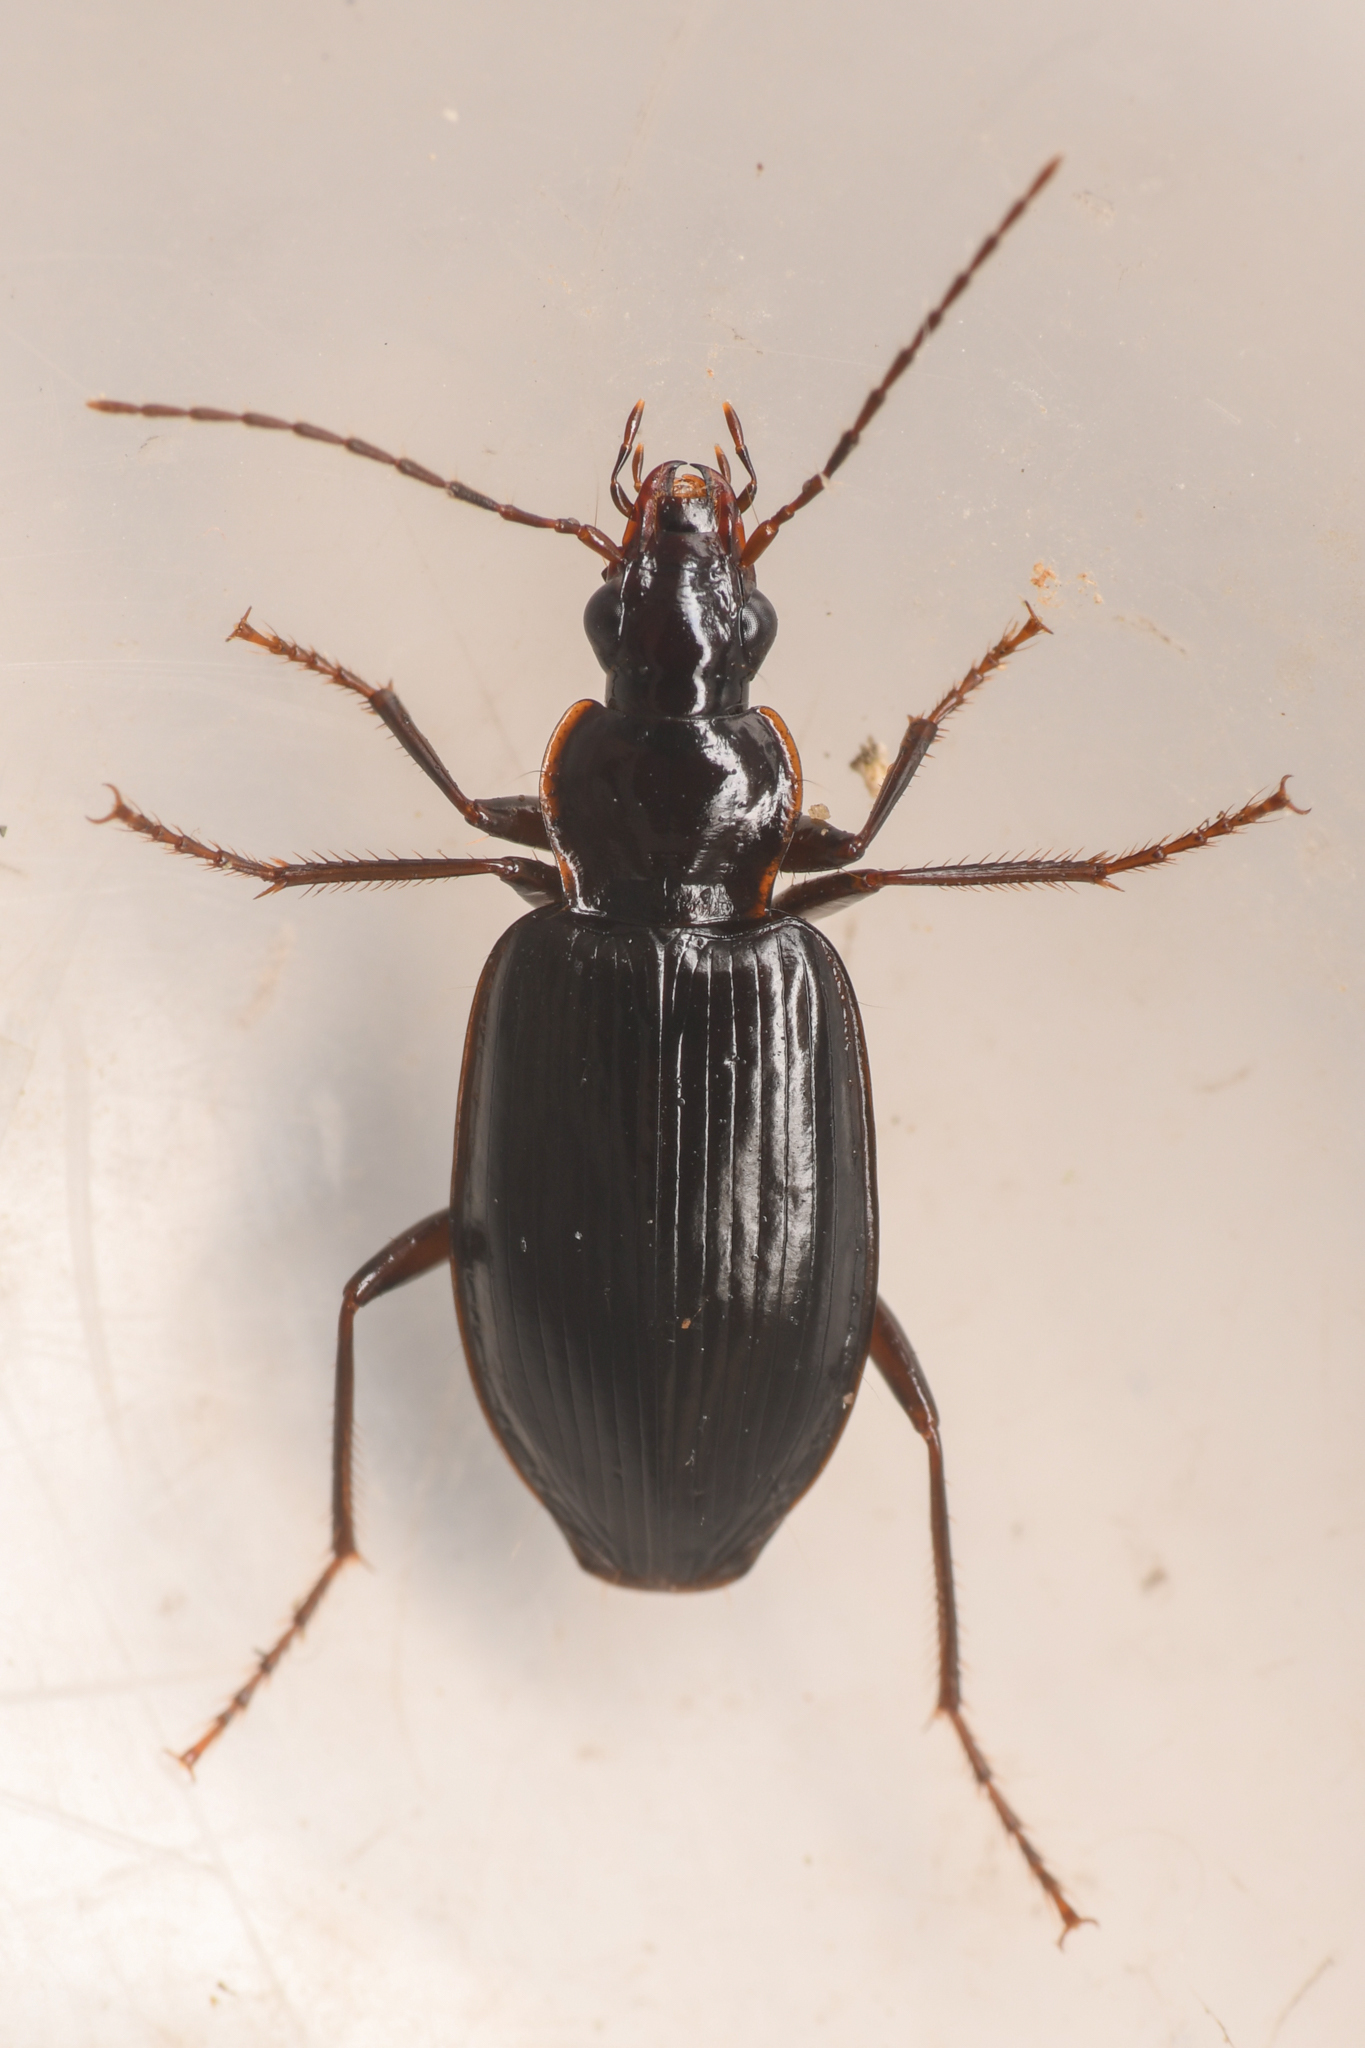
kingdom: Animalia
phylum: Arthropoda
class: Insecta
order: Coleoptera
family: Carabidae
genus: Platynus
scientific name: Platynus brunneomarginatus
